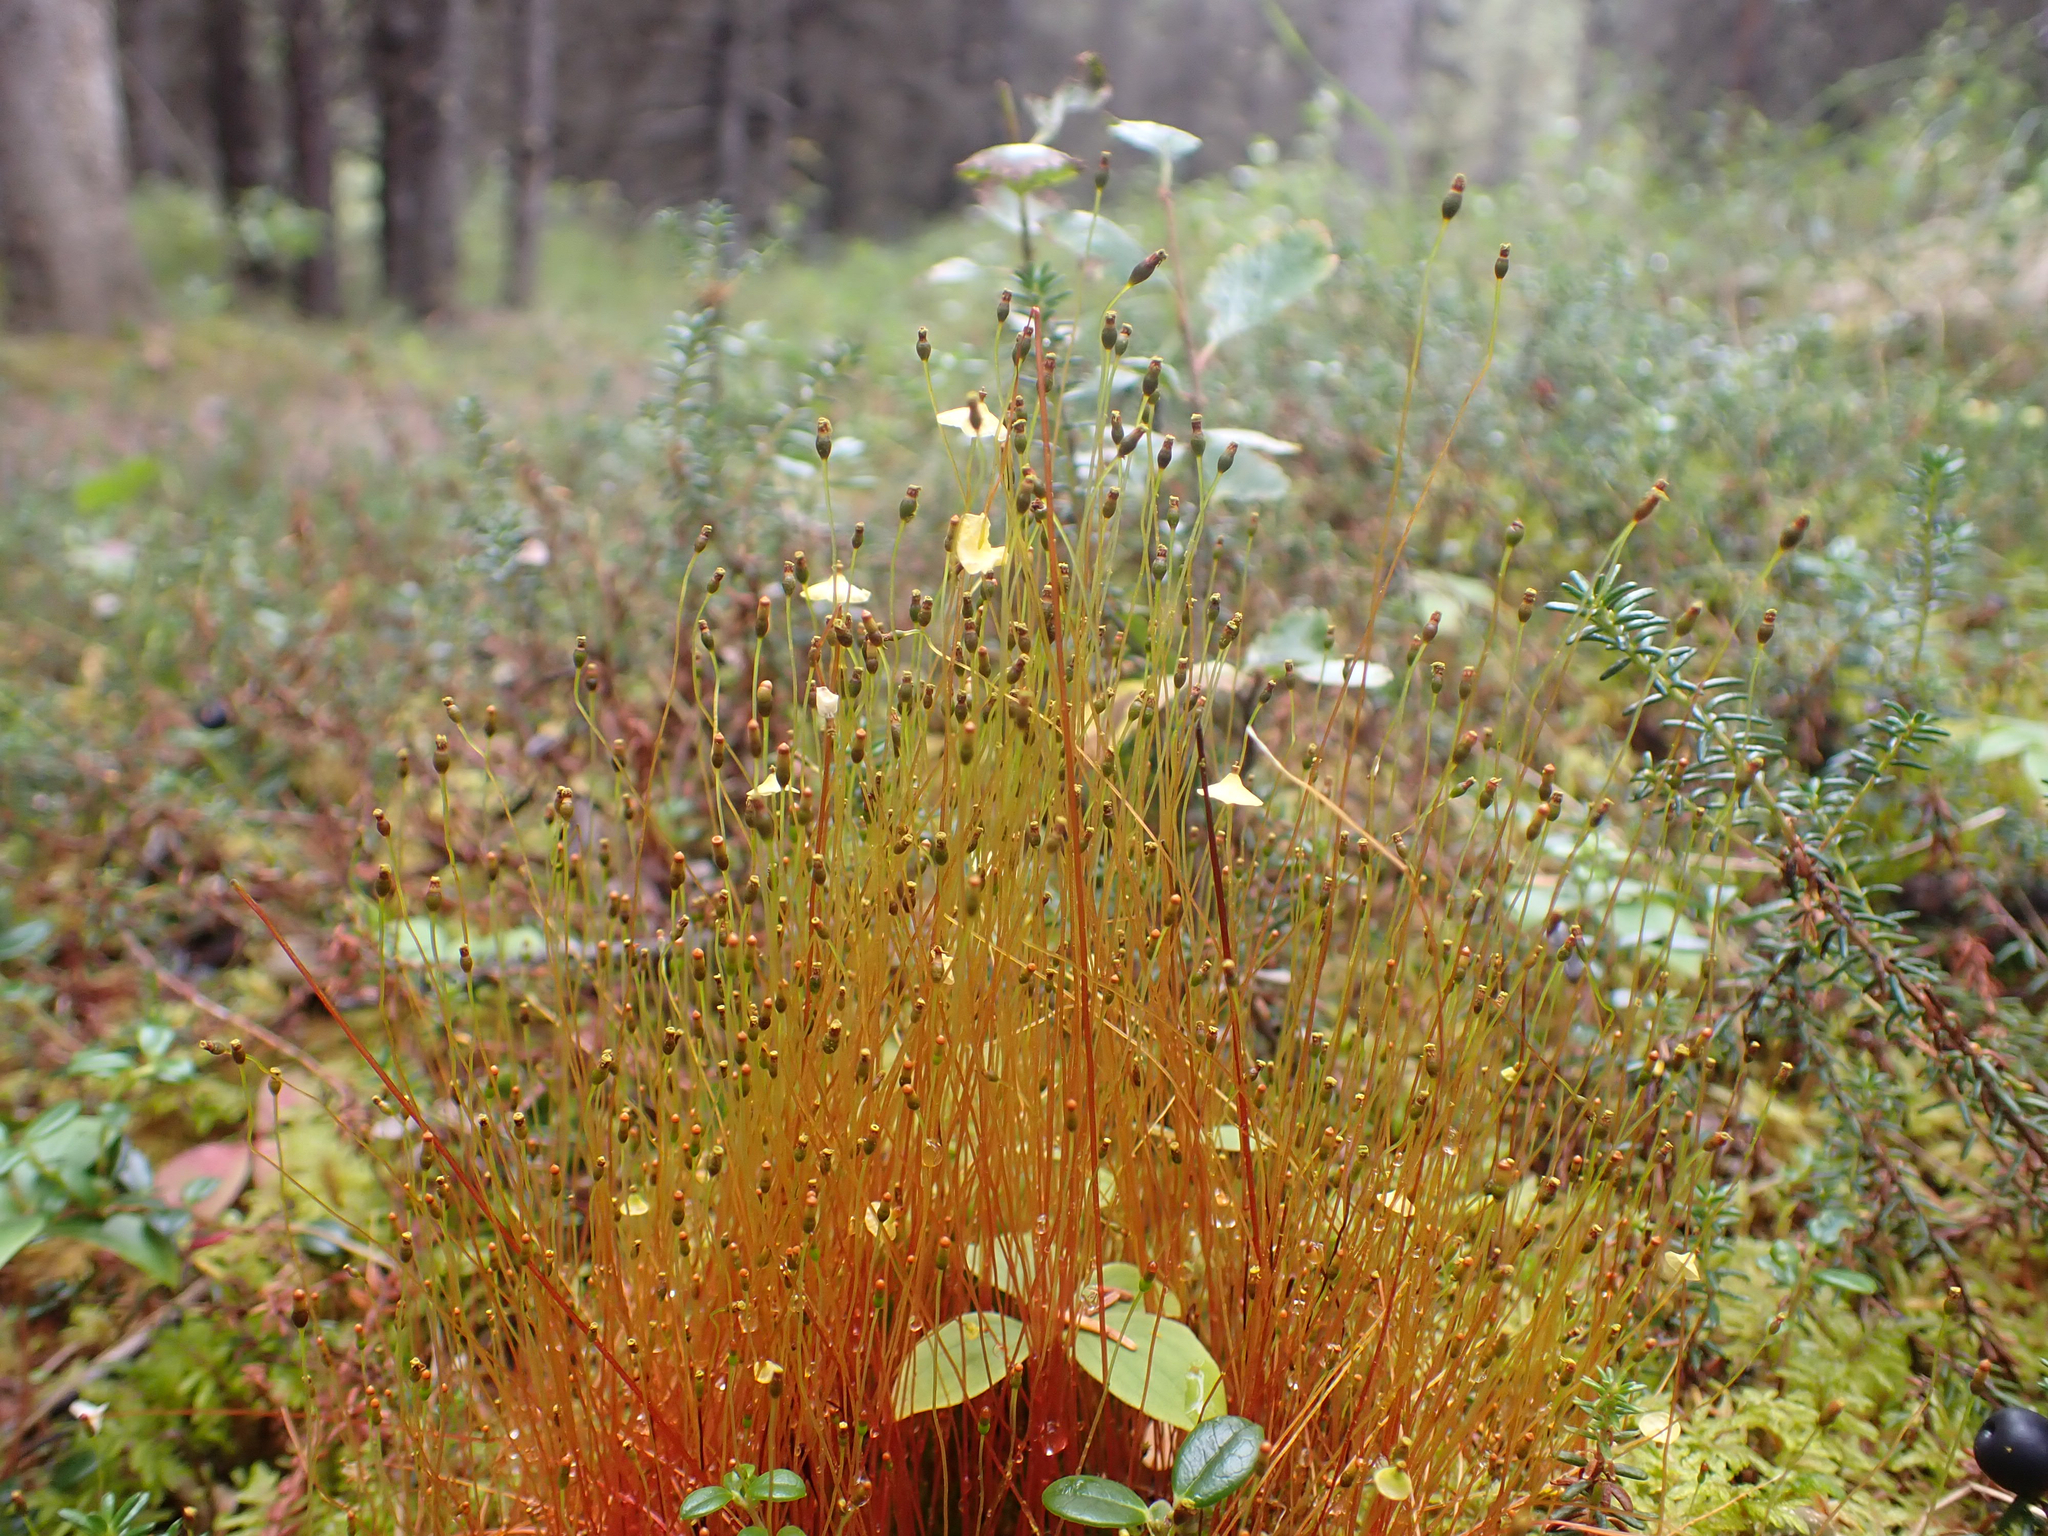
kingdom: Plantae
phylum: Bryophyta
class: Bryopsida
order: Splachnales
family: Splachnaceae
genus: Splachnum
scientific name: Splachnum luteum
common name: Yellow dung moss
